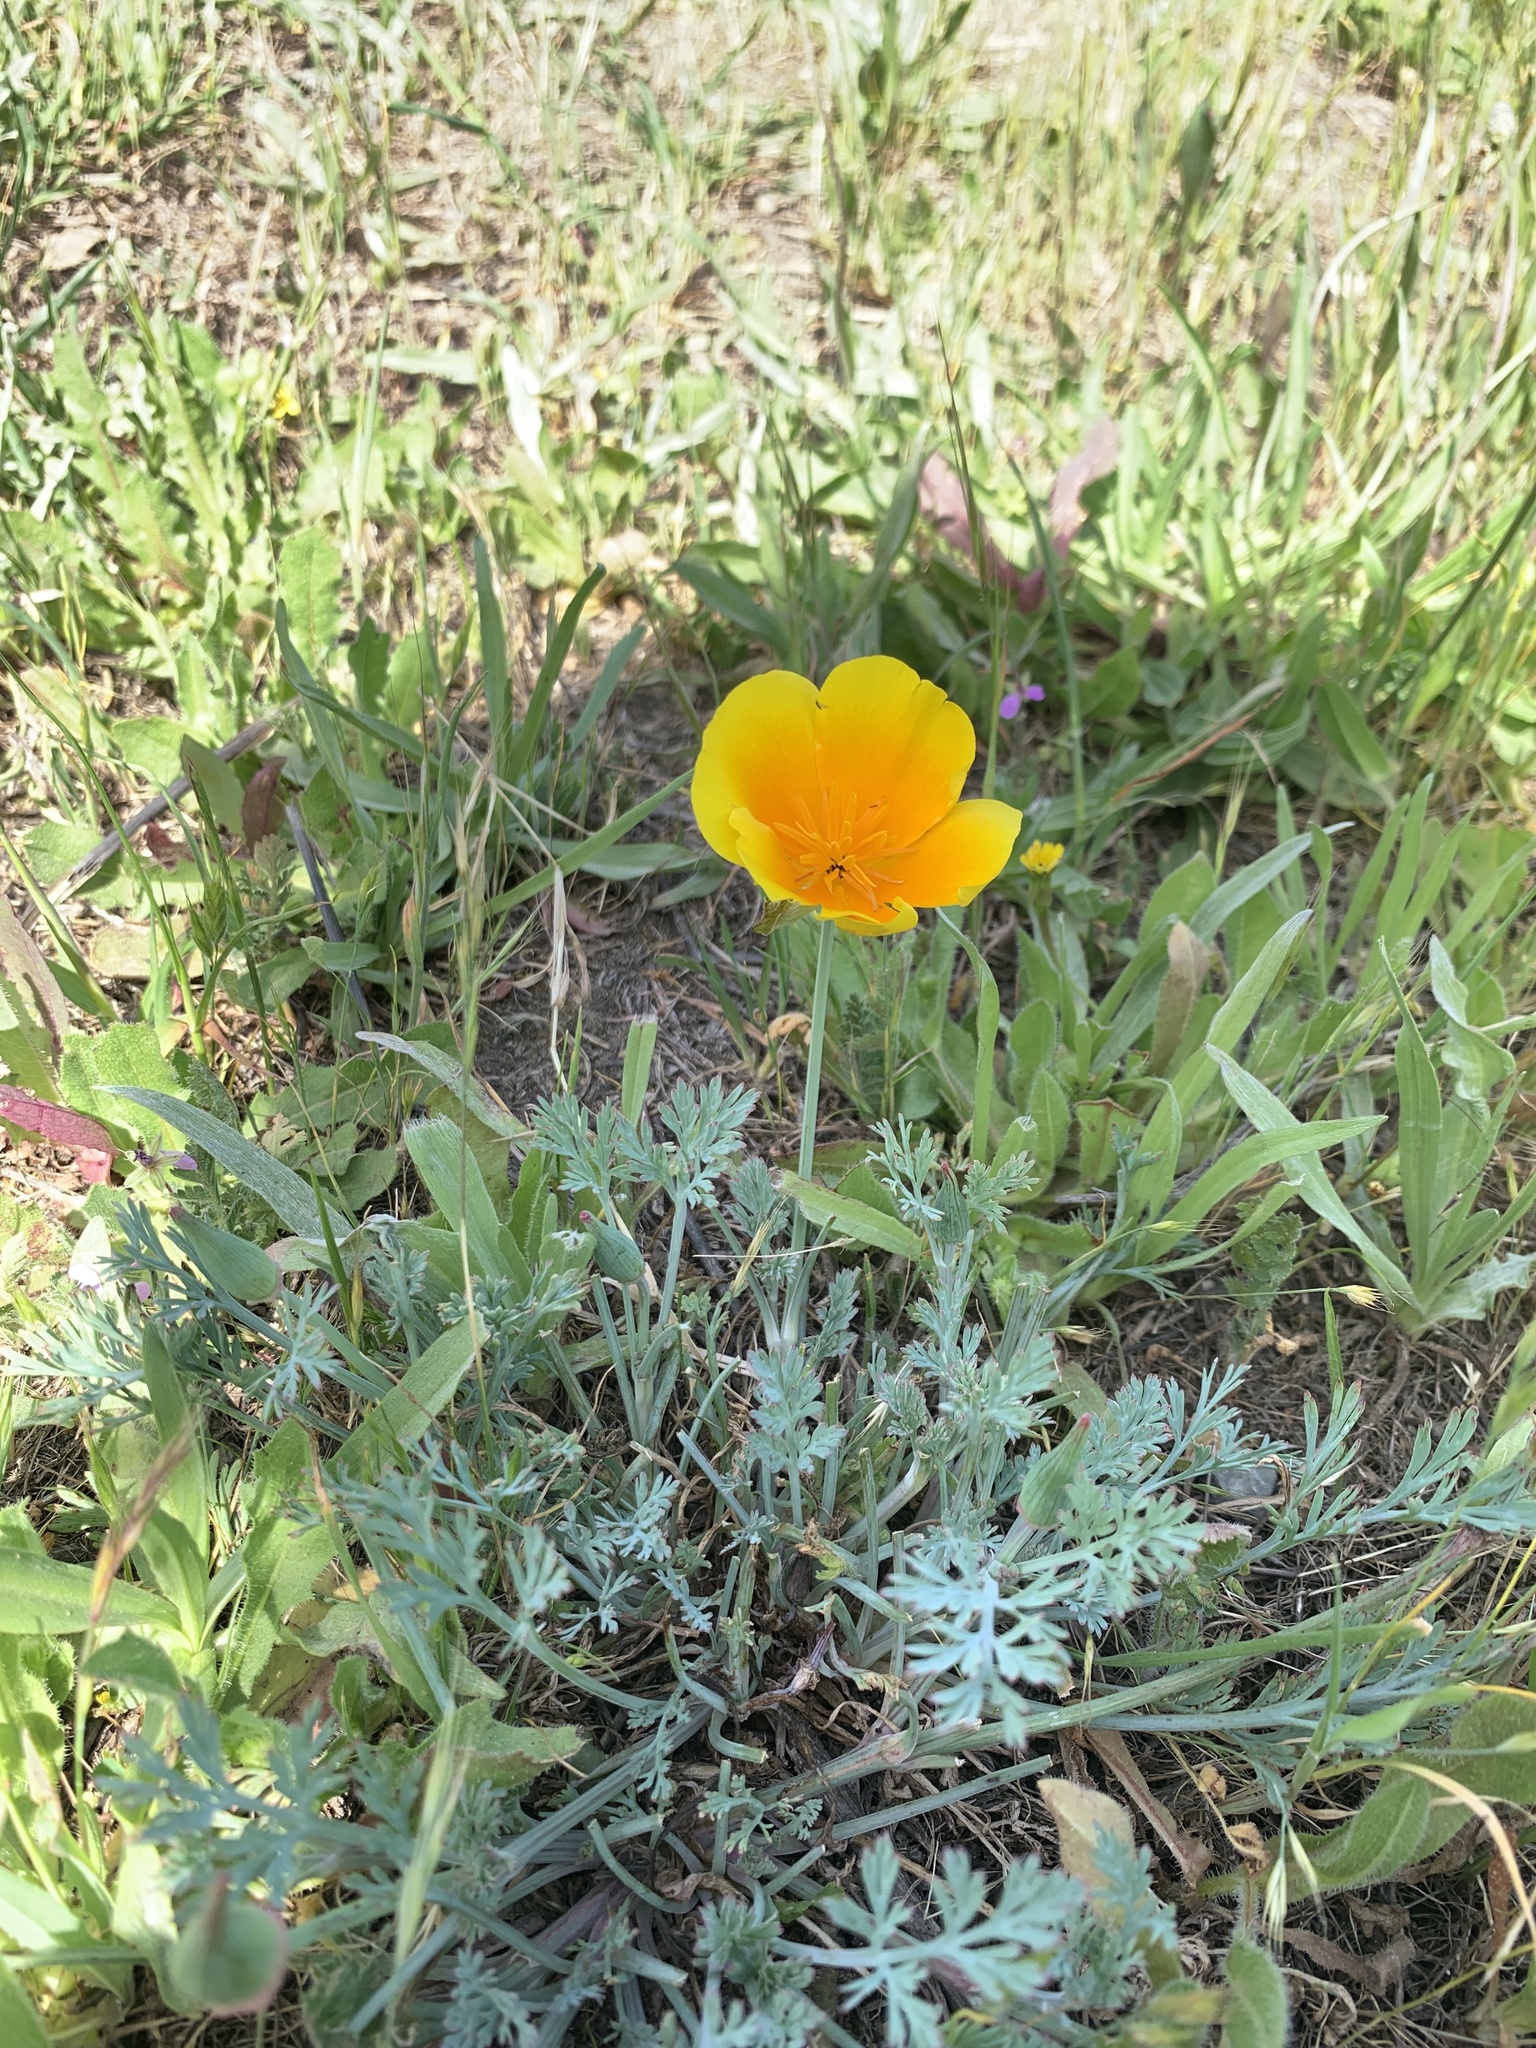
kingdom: Plantae
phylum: Tracheophyta
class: Magnoliopsida
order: Ranunculales
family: Papaveraceae
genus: Eschscholzia
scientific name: Eschscholzia californica
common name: California poppy
